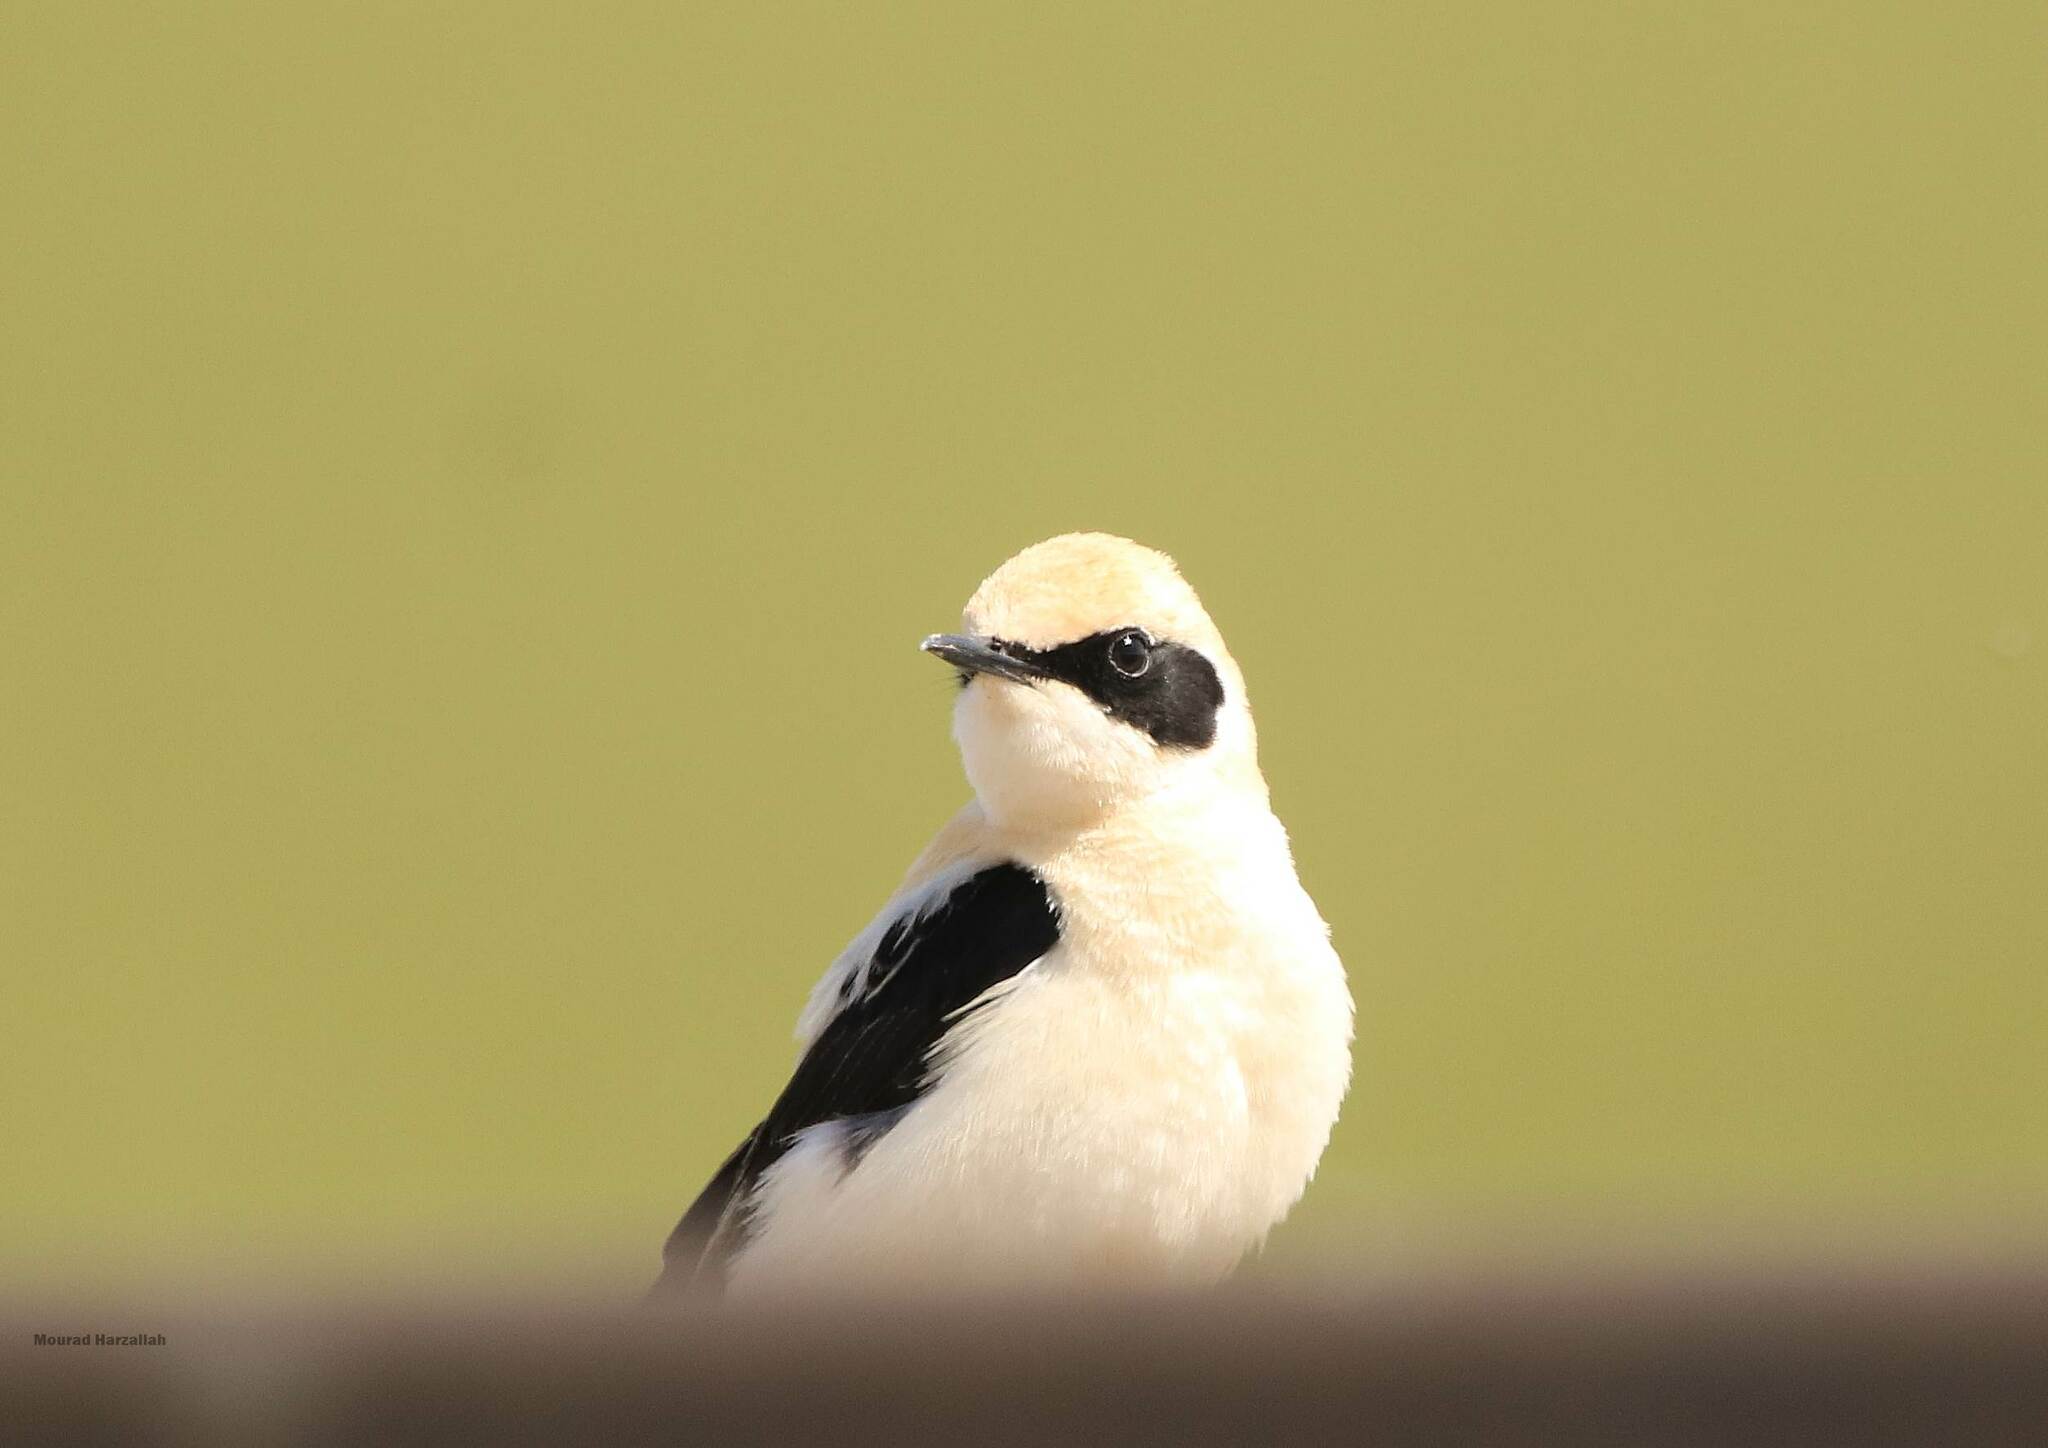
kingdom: Animalia
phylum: Chordata
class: Aves
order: Passeriformes
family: Muscicapidae
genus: Oenanthe
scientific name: Oenanthe hispanica
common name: Black-eared wheatear
